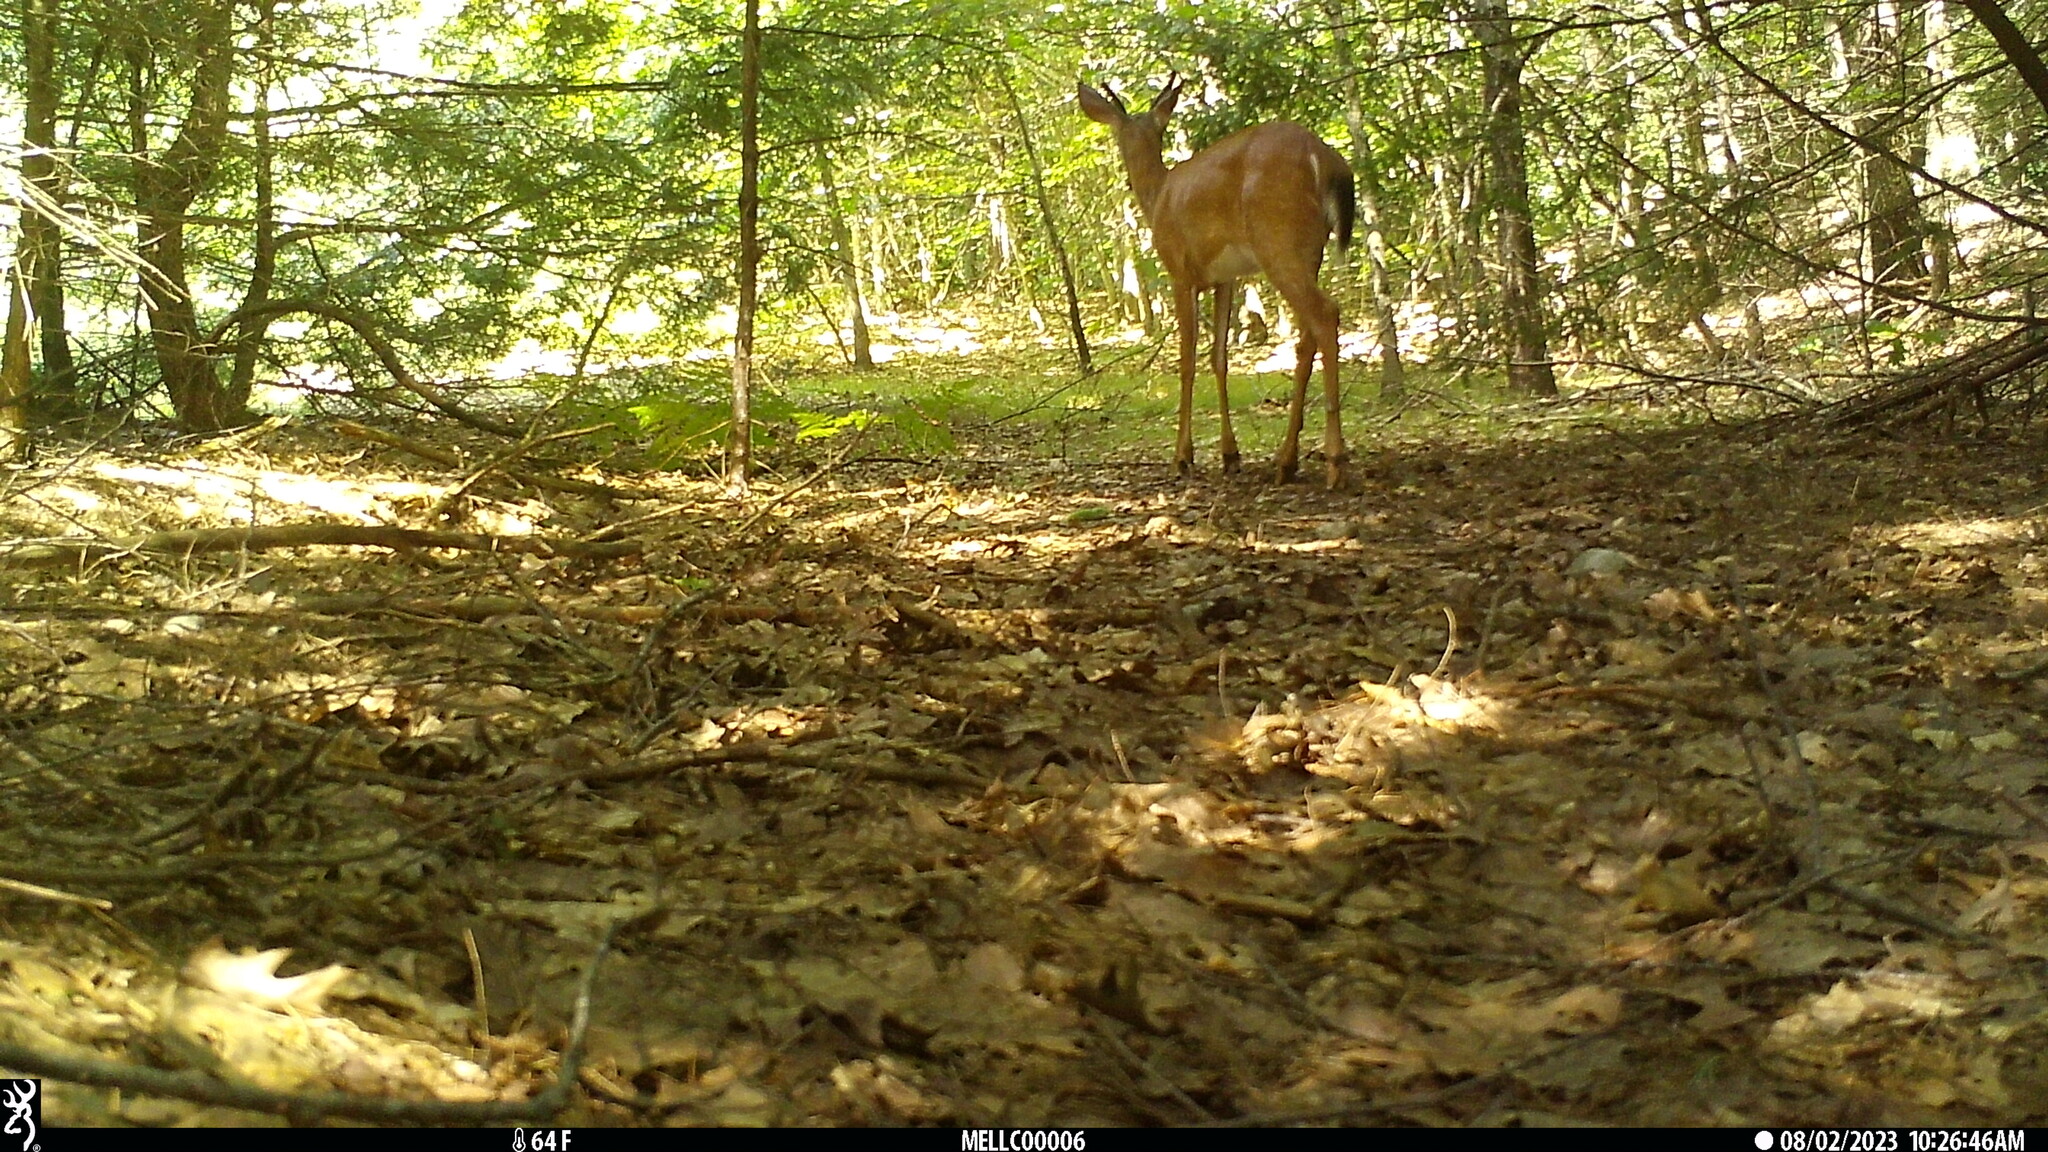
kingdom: Animalia
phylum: Chordata
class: Mammalia
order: Artiodactyla
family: Cervidae
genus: Odocoileus
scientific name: Odocoileus virginianus
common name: White-tailed deer
